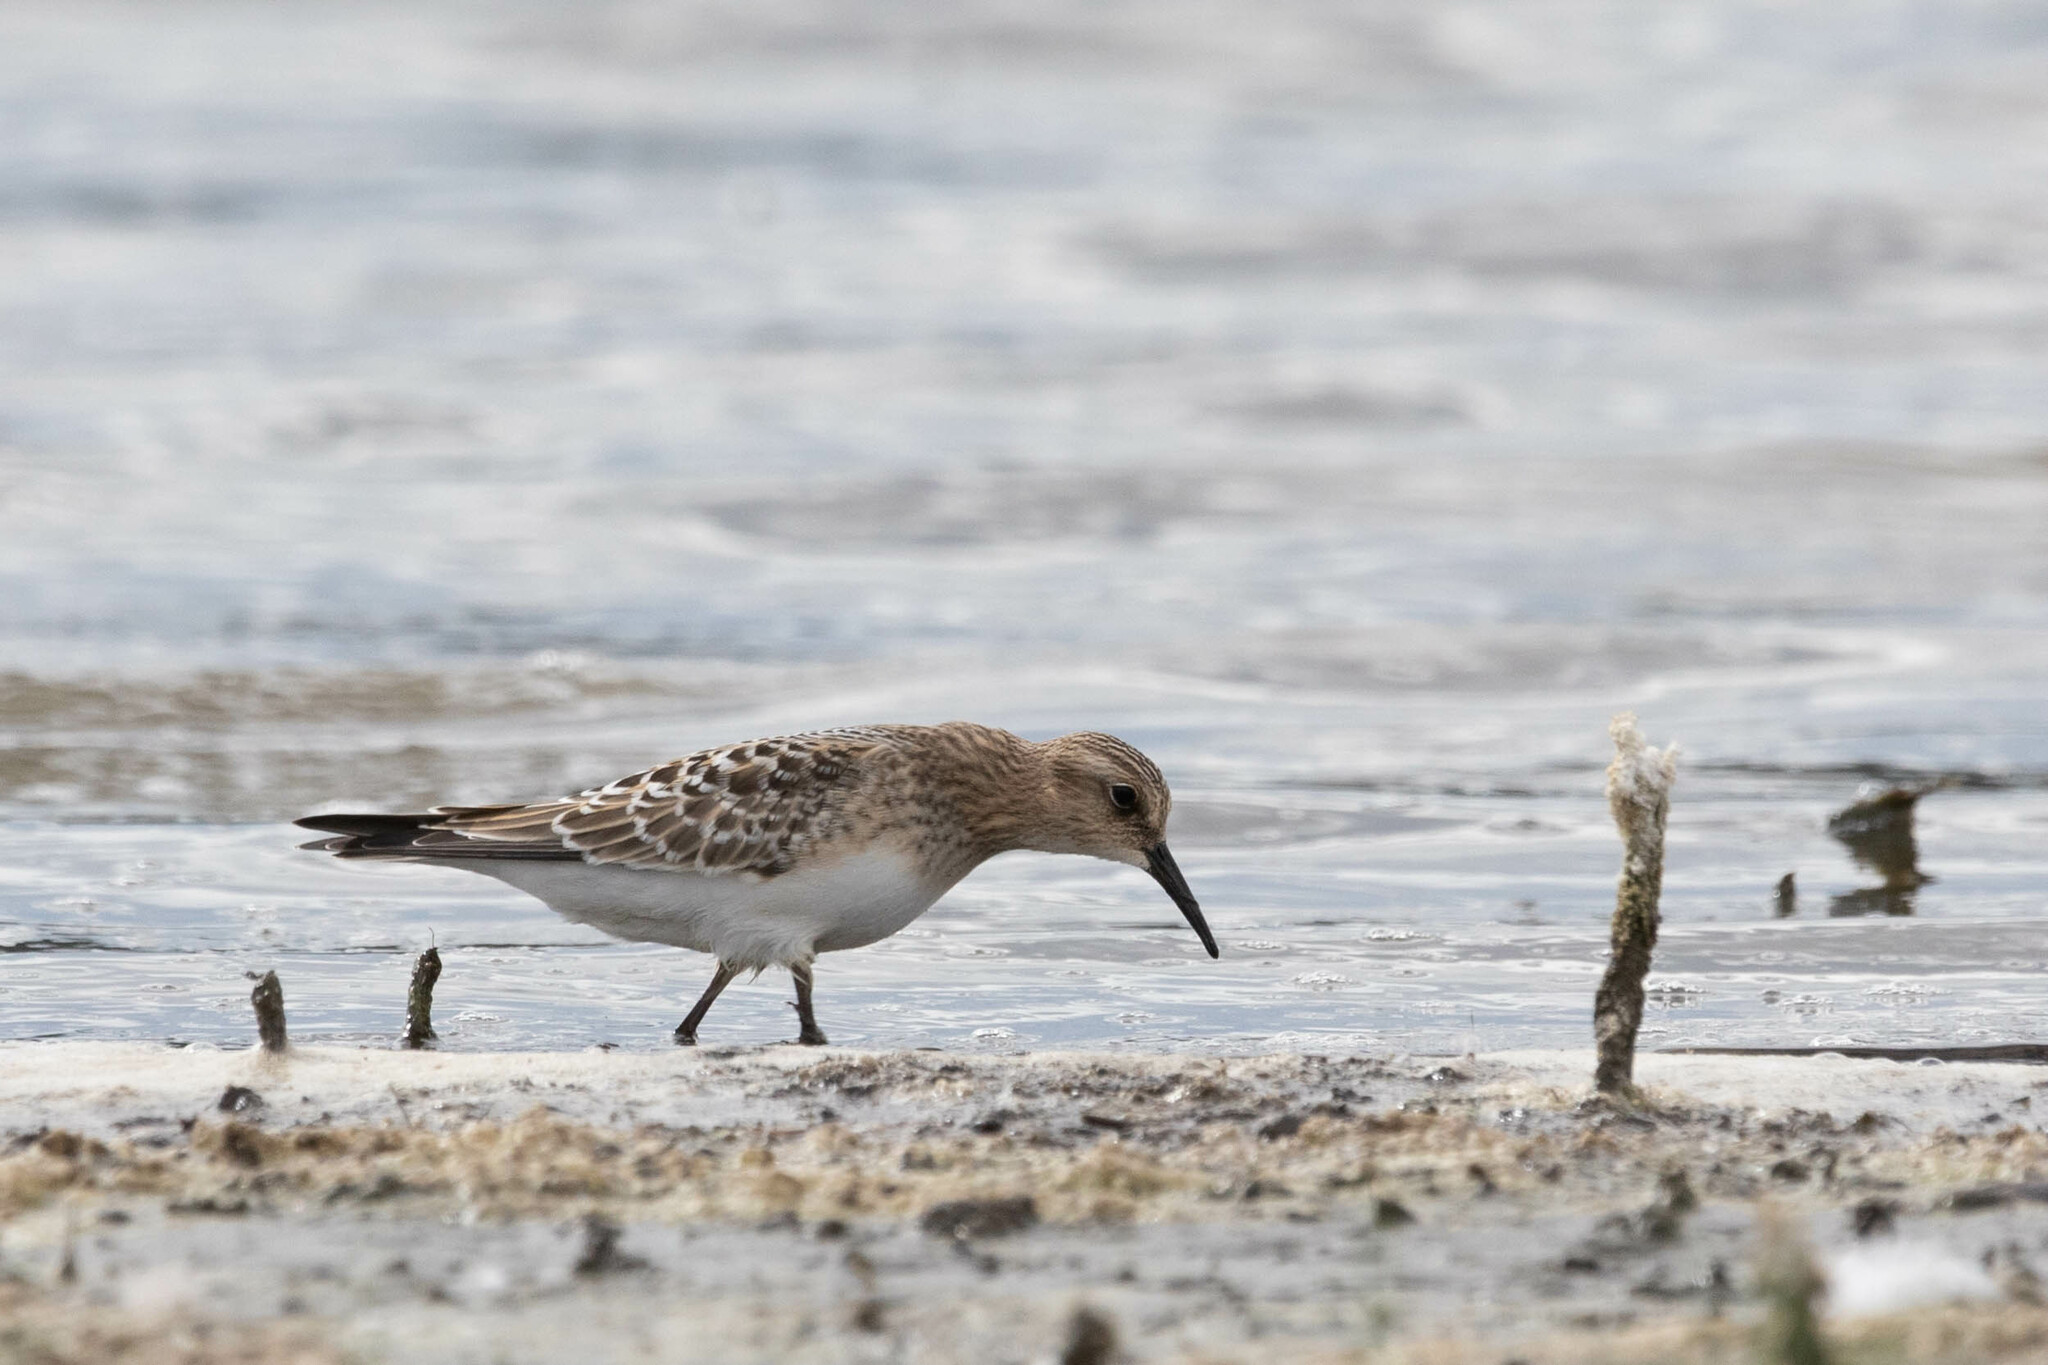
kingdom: Animalia
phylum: Chordata
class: Aves
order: Charadriiformes
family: Scolopacidae
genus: Calidris
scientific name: Calidris bairdii
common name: Baird's sandpiper
